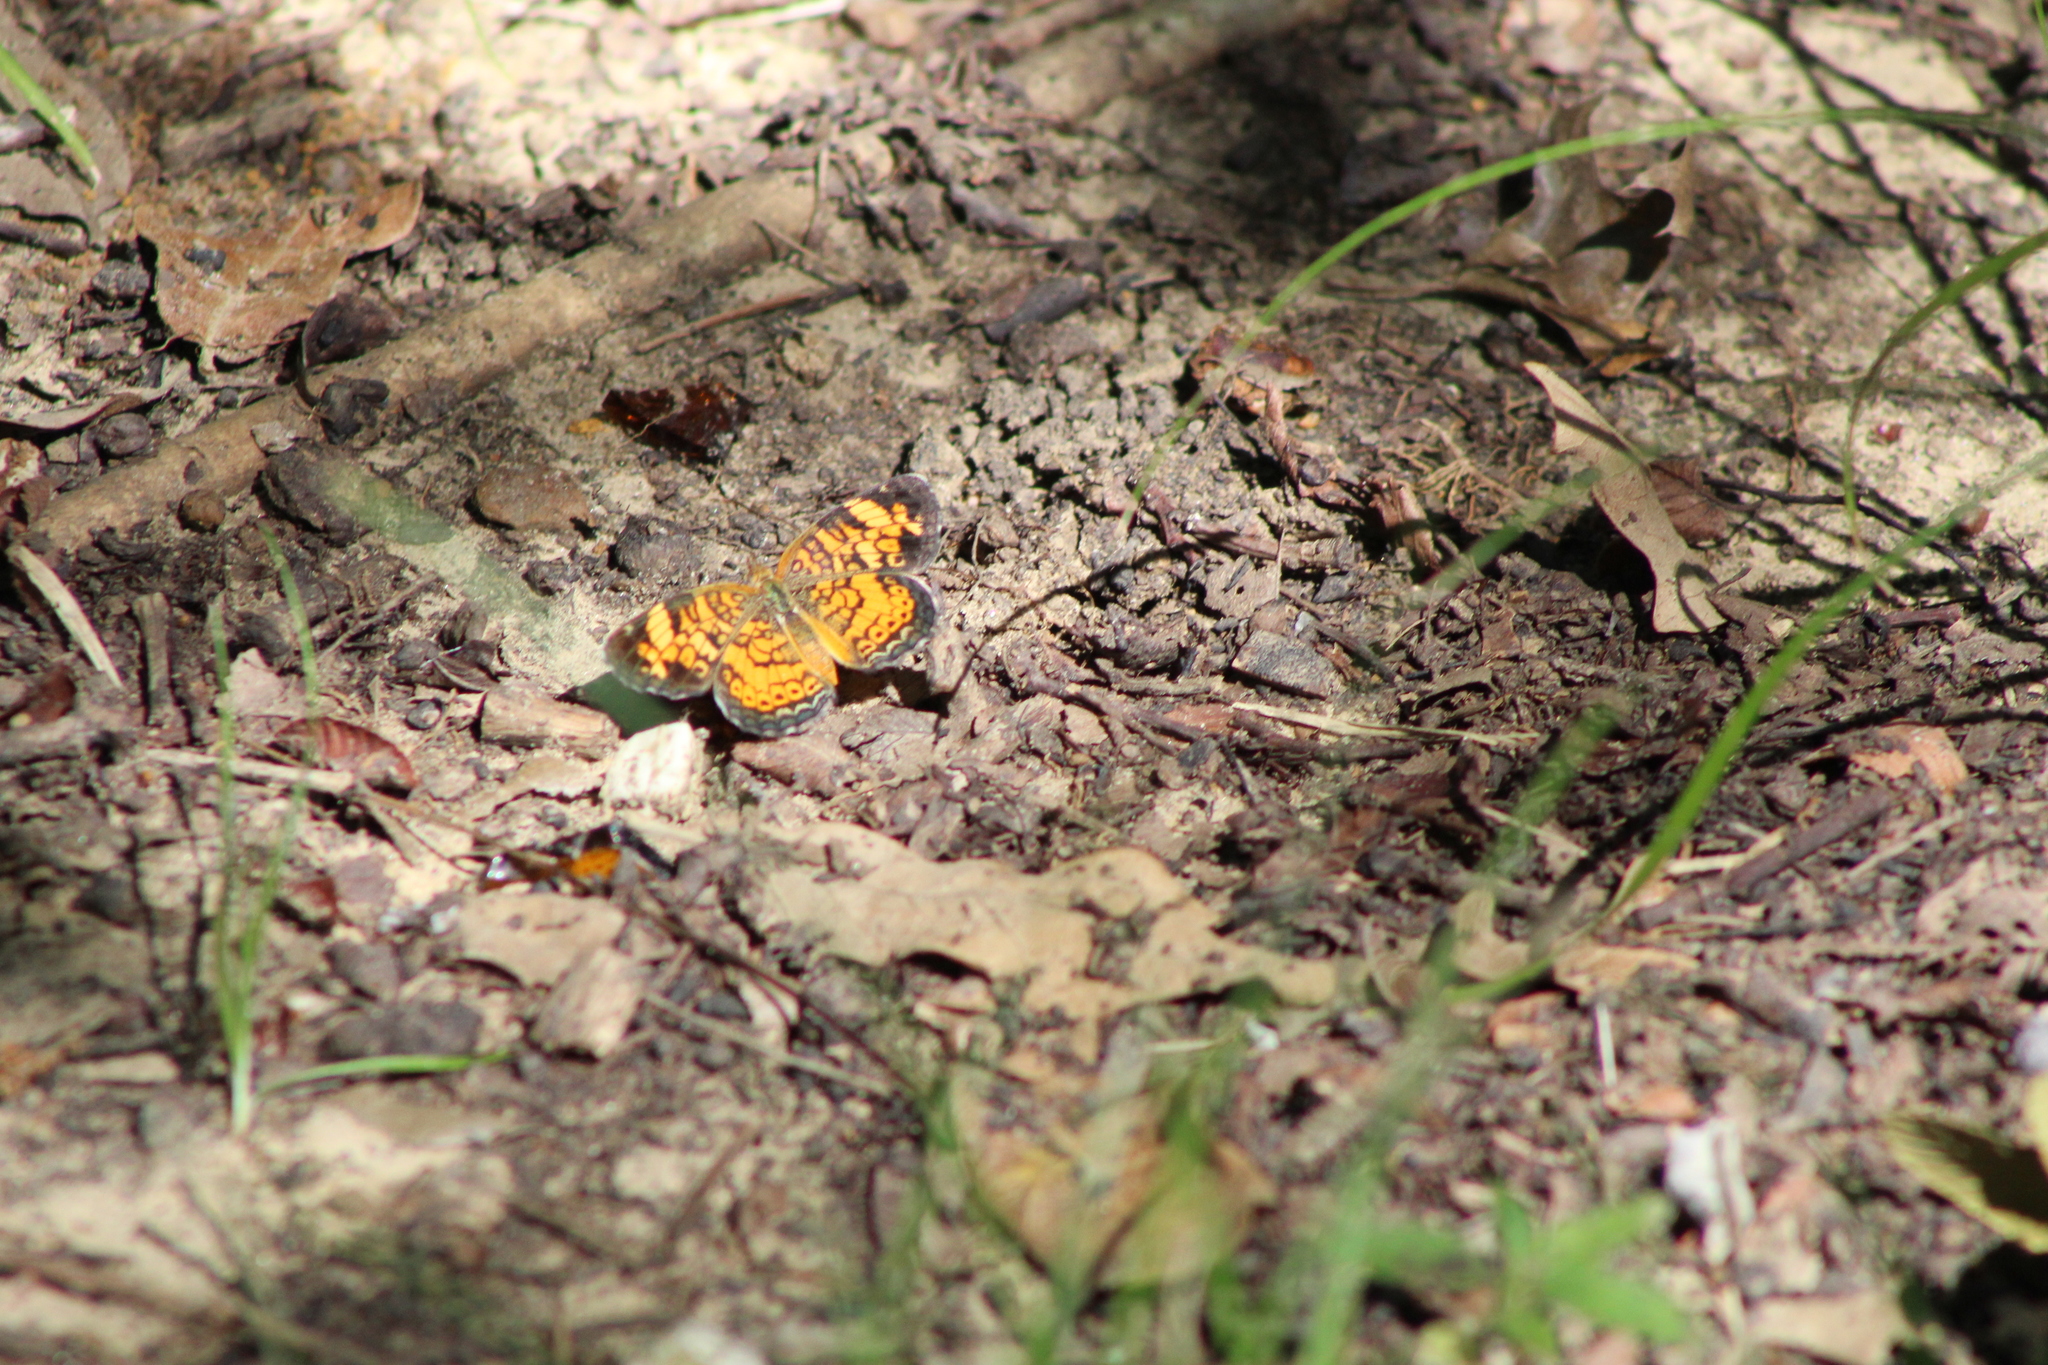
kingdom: Animalia
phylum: Arthropoda
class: Insecta
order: Lepidoptera
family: Nymphalidae
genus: Phyciodes
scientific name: Phyciodes tharos
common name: Pearl crescent
